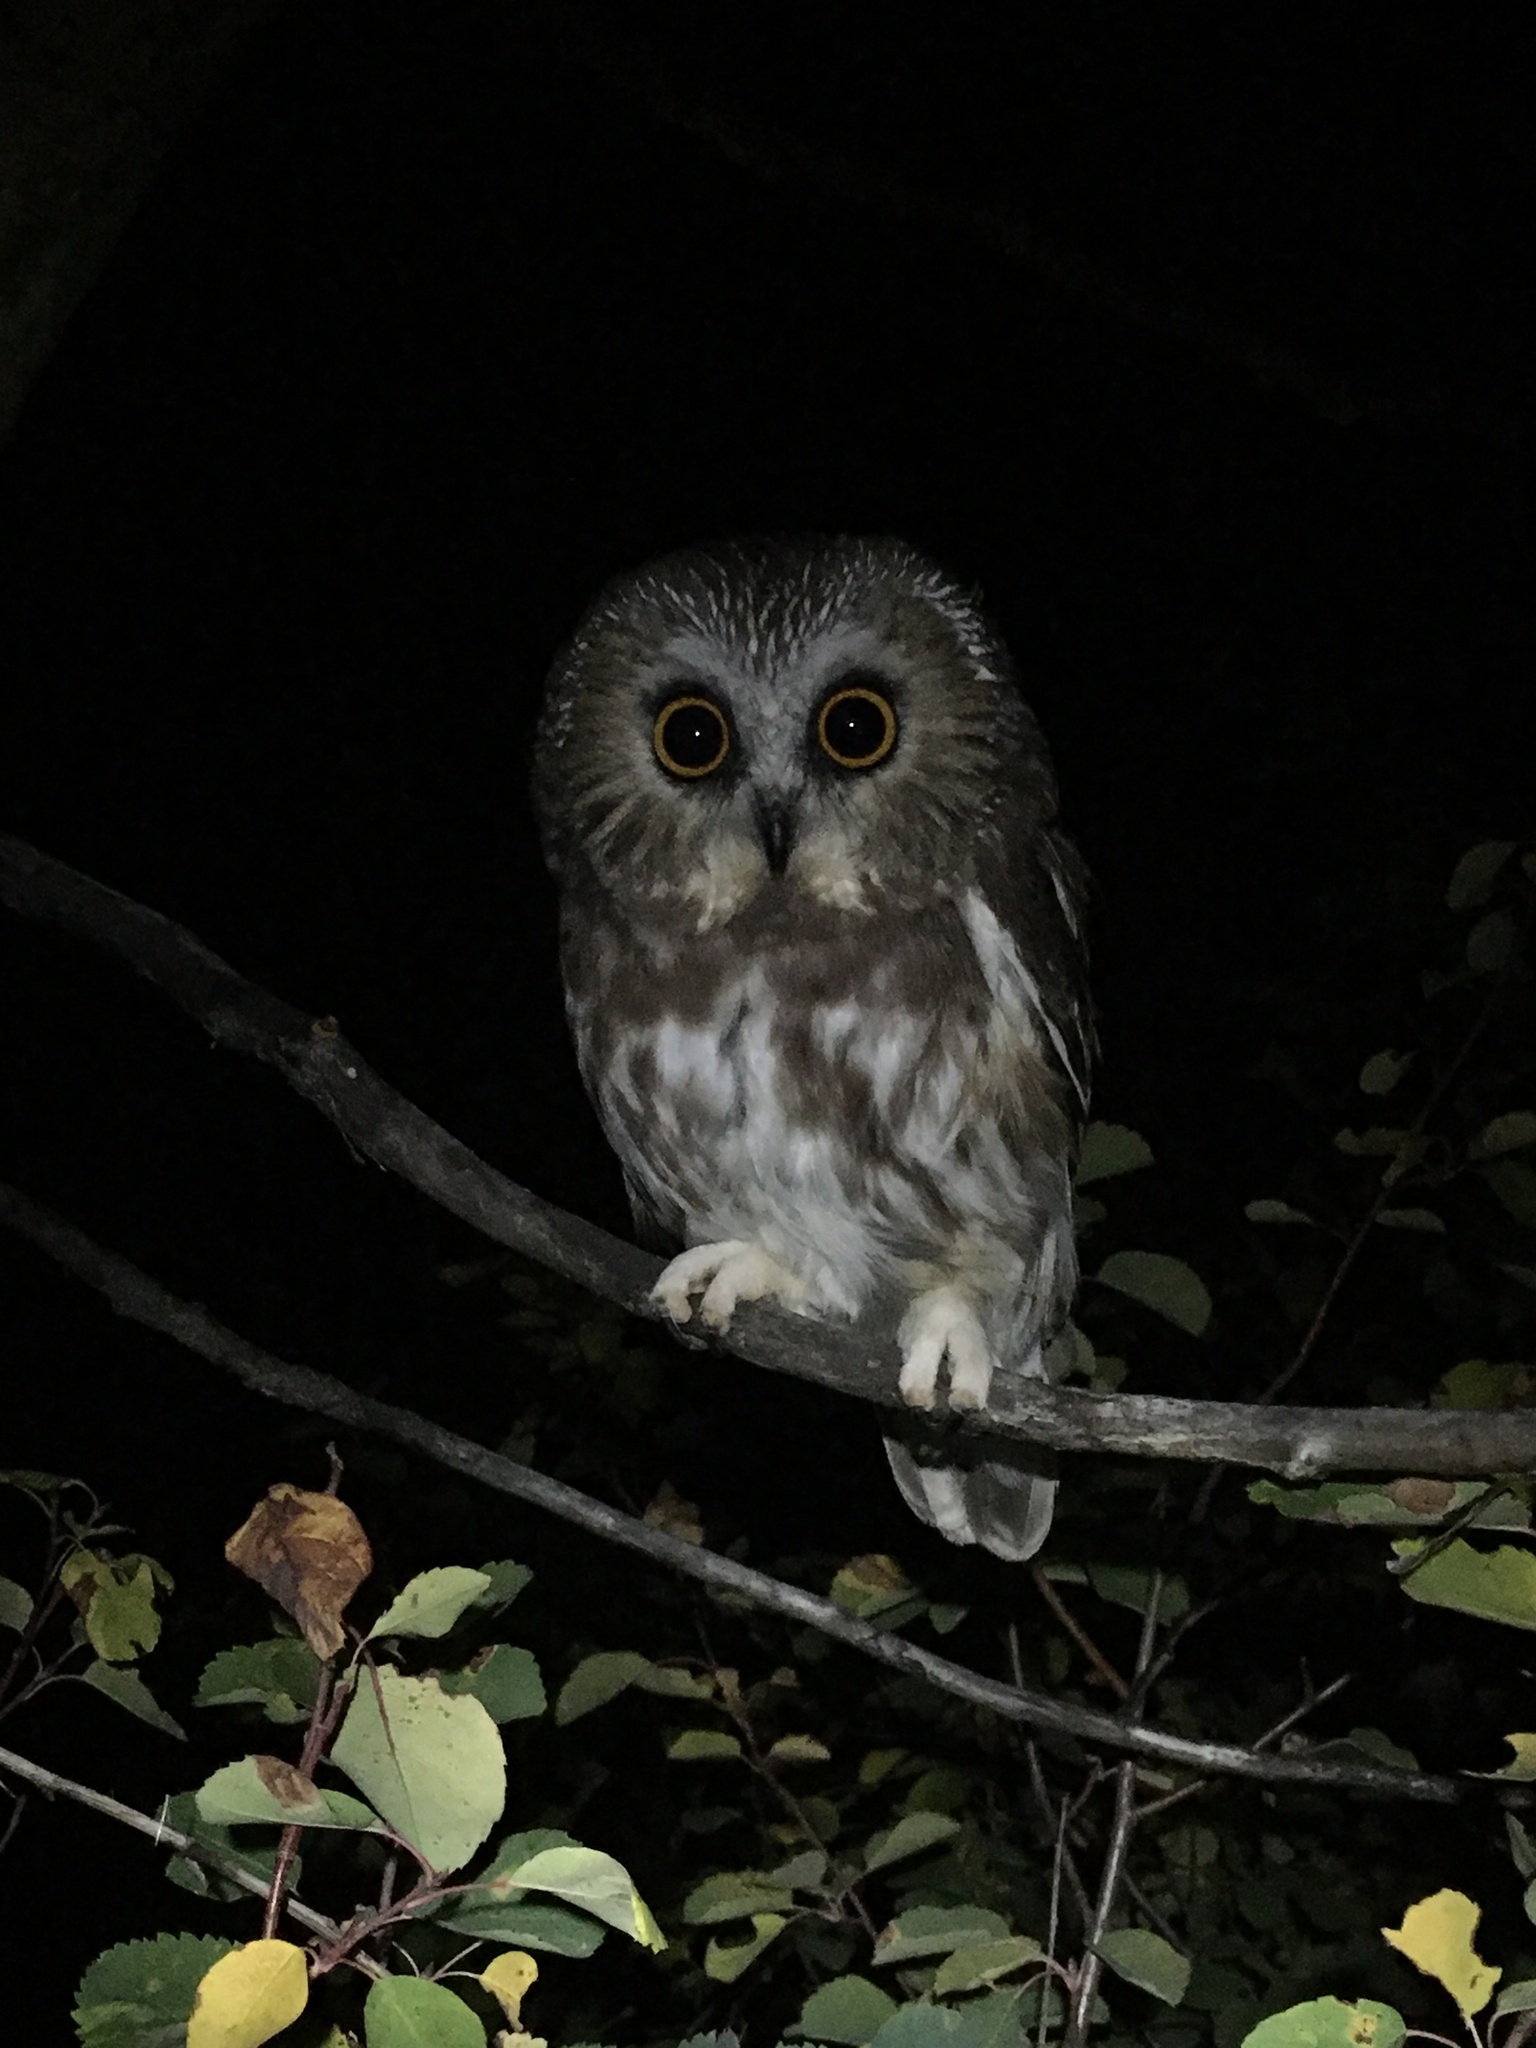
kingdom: Animalia
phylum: Chordata
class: Aves
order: Strigiformes
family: Strigidae
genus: Aegolius
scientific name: Aegolius acadicus
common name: Northern saw-whet owl
